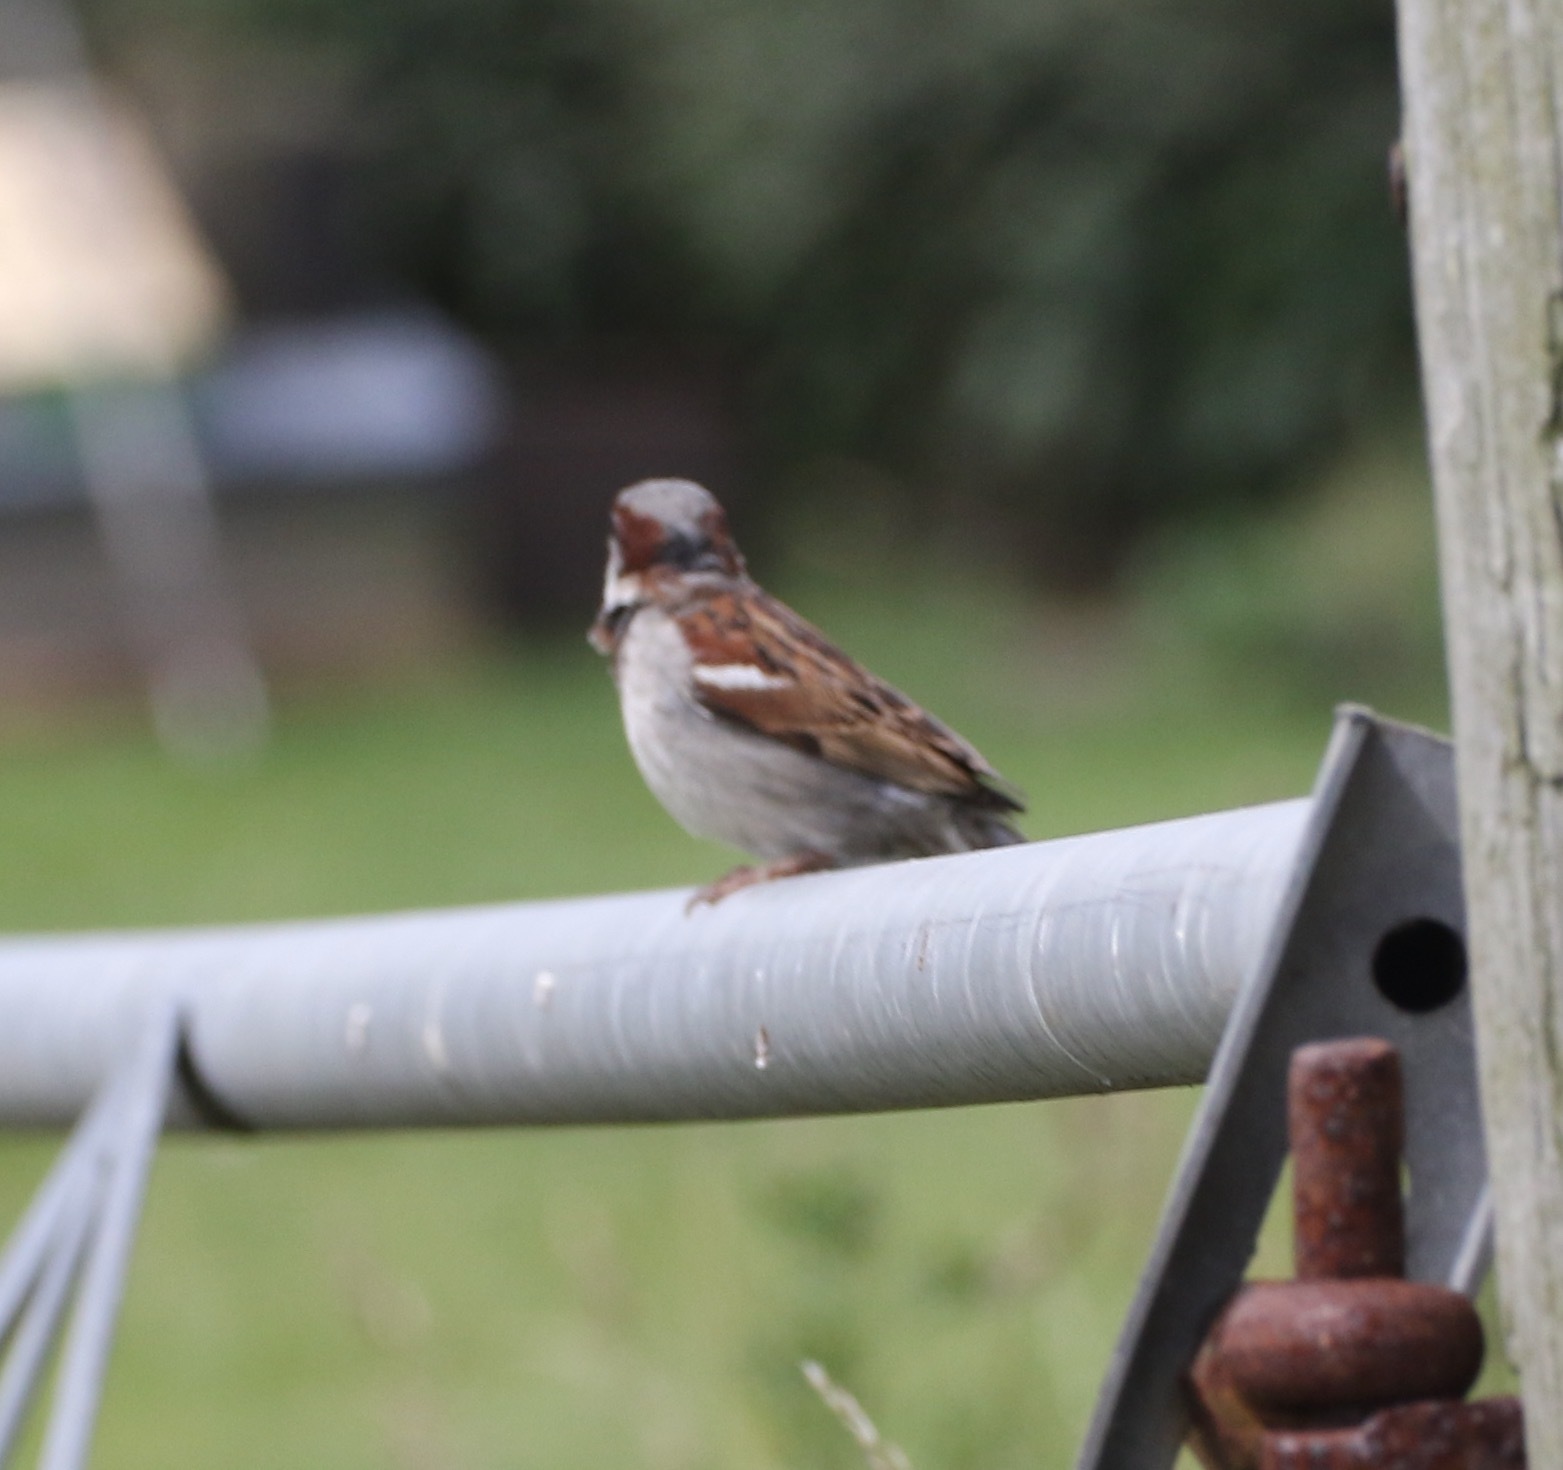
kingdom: Animalia
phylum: Chordata
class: Aves
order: Passeriformes
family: Passeridae
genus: Passer
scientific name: Passer domesticus
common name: House sparrow
